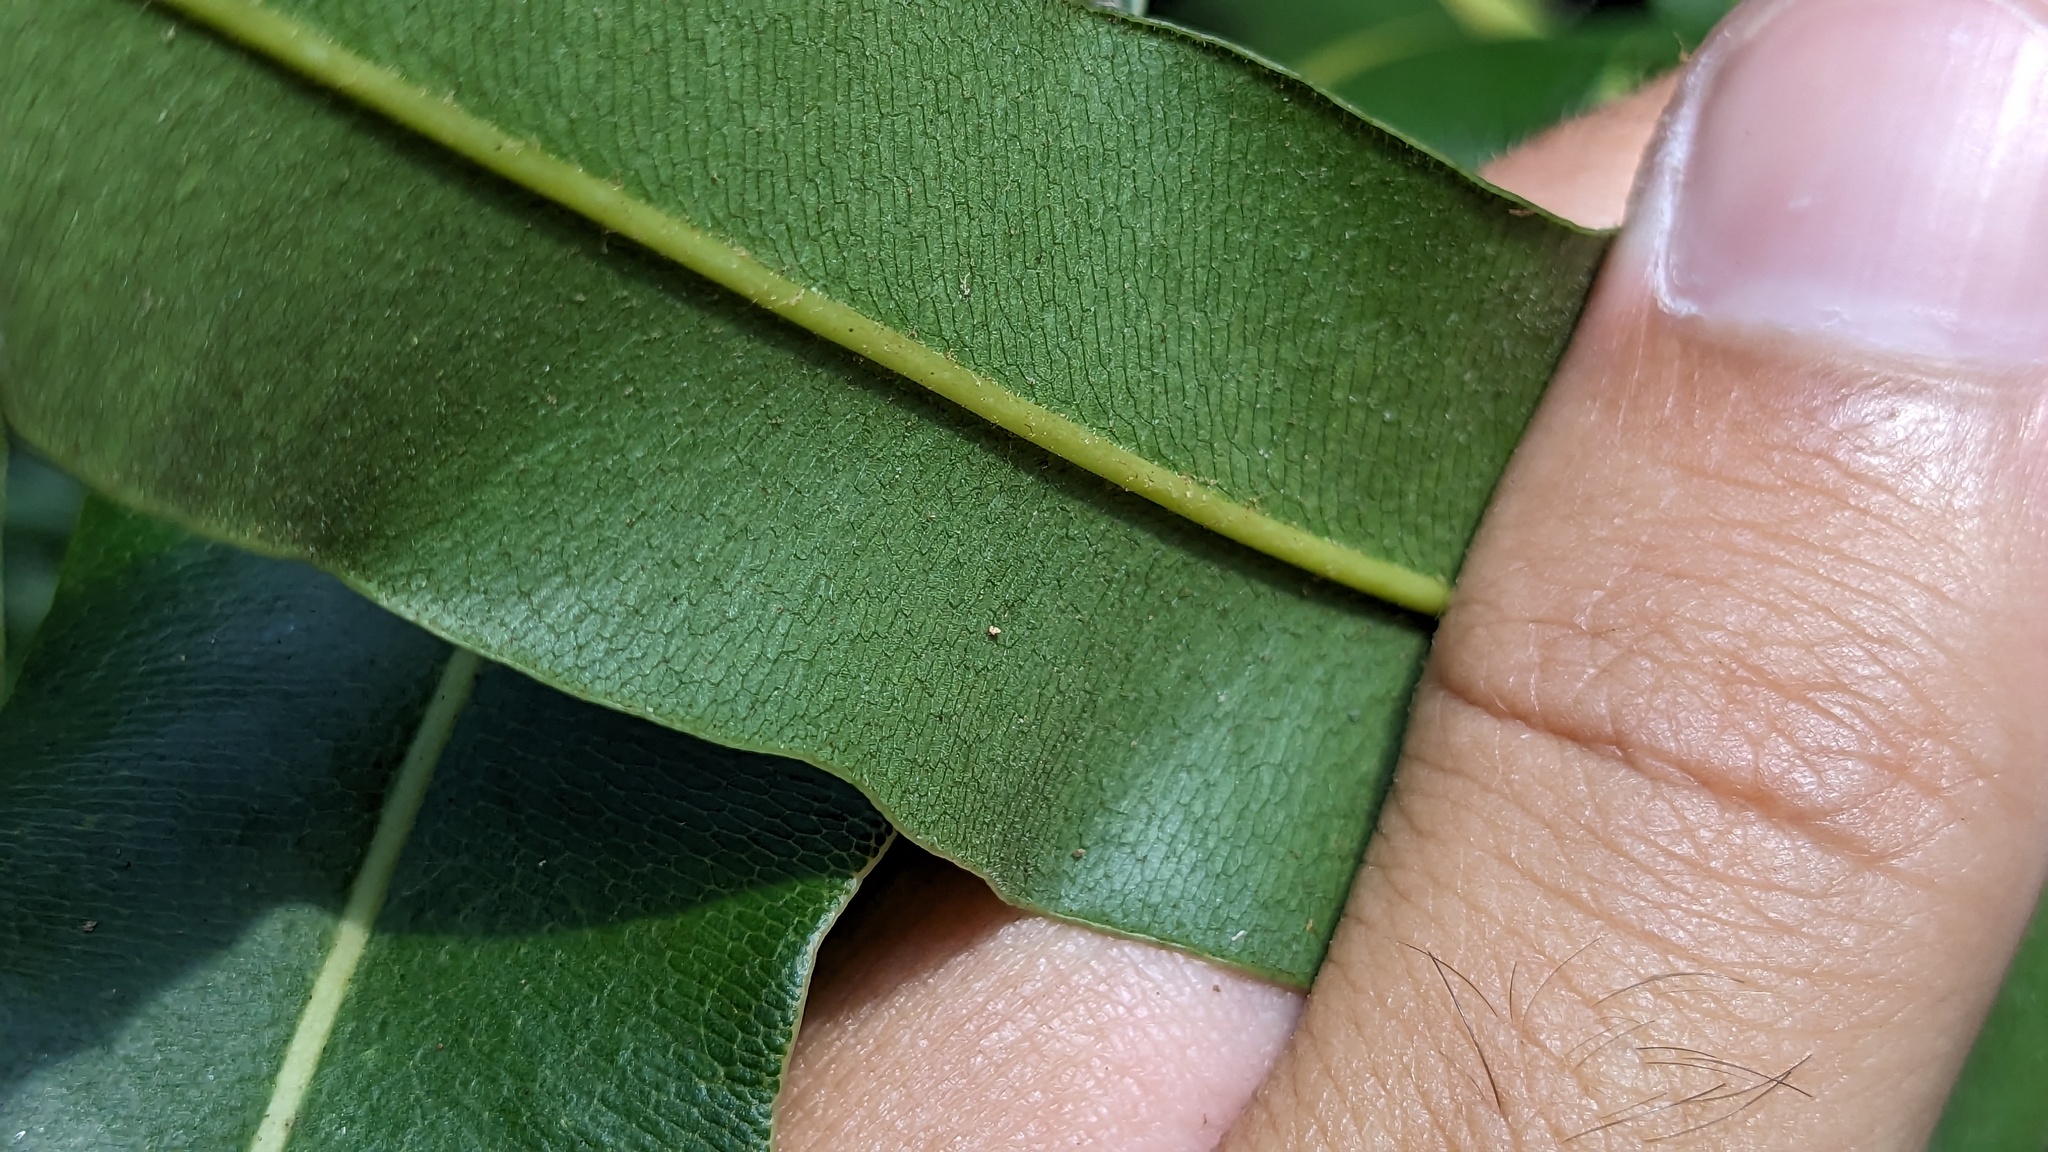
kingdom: Plantae
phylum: Tracheophyta
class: Polypodiopsida
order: Polypodiales
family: Pteridaceae
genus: Acrostichum
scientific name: Acrostichum danaeifolium
